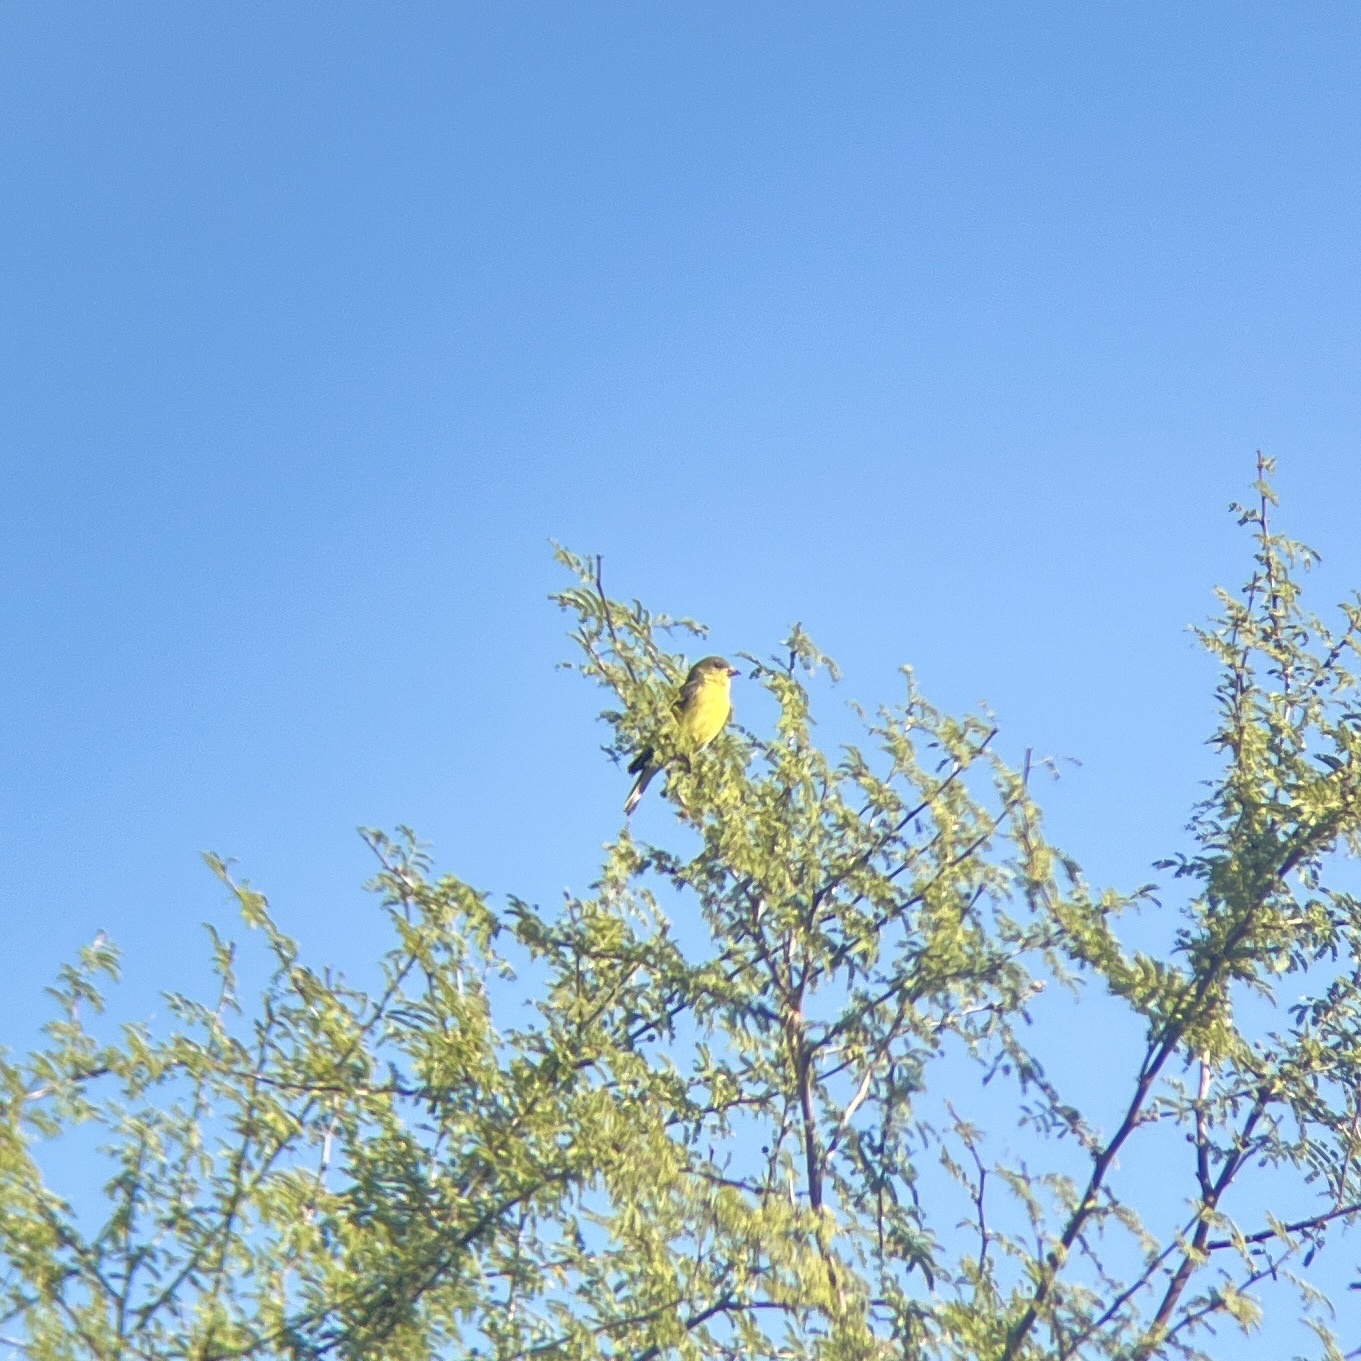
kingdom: Animalia
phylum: Chordata
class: Aves
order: Passeriformes
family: Fringillidae
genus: Spinus
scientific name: Spinus psaltria
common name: Lesser goldfinch
